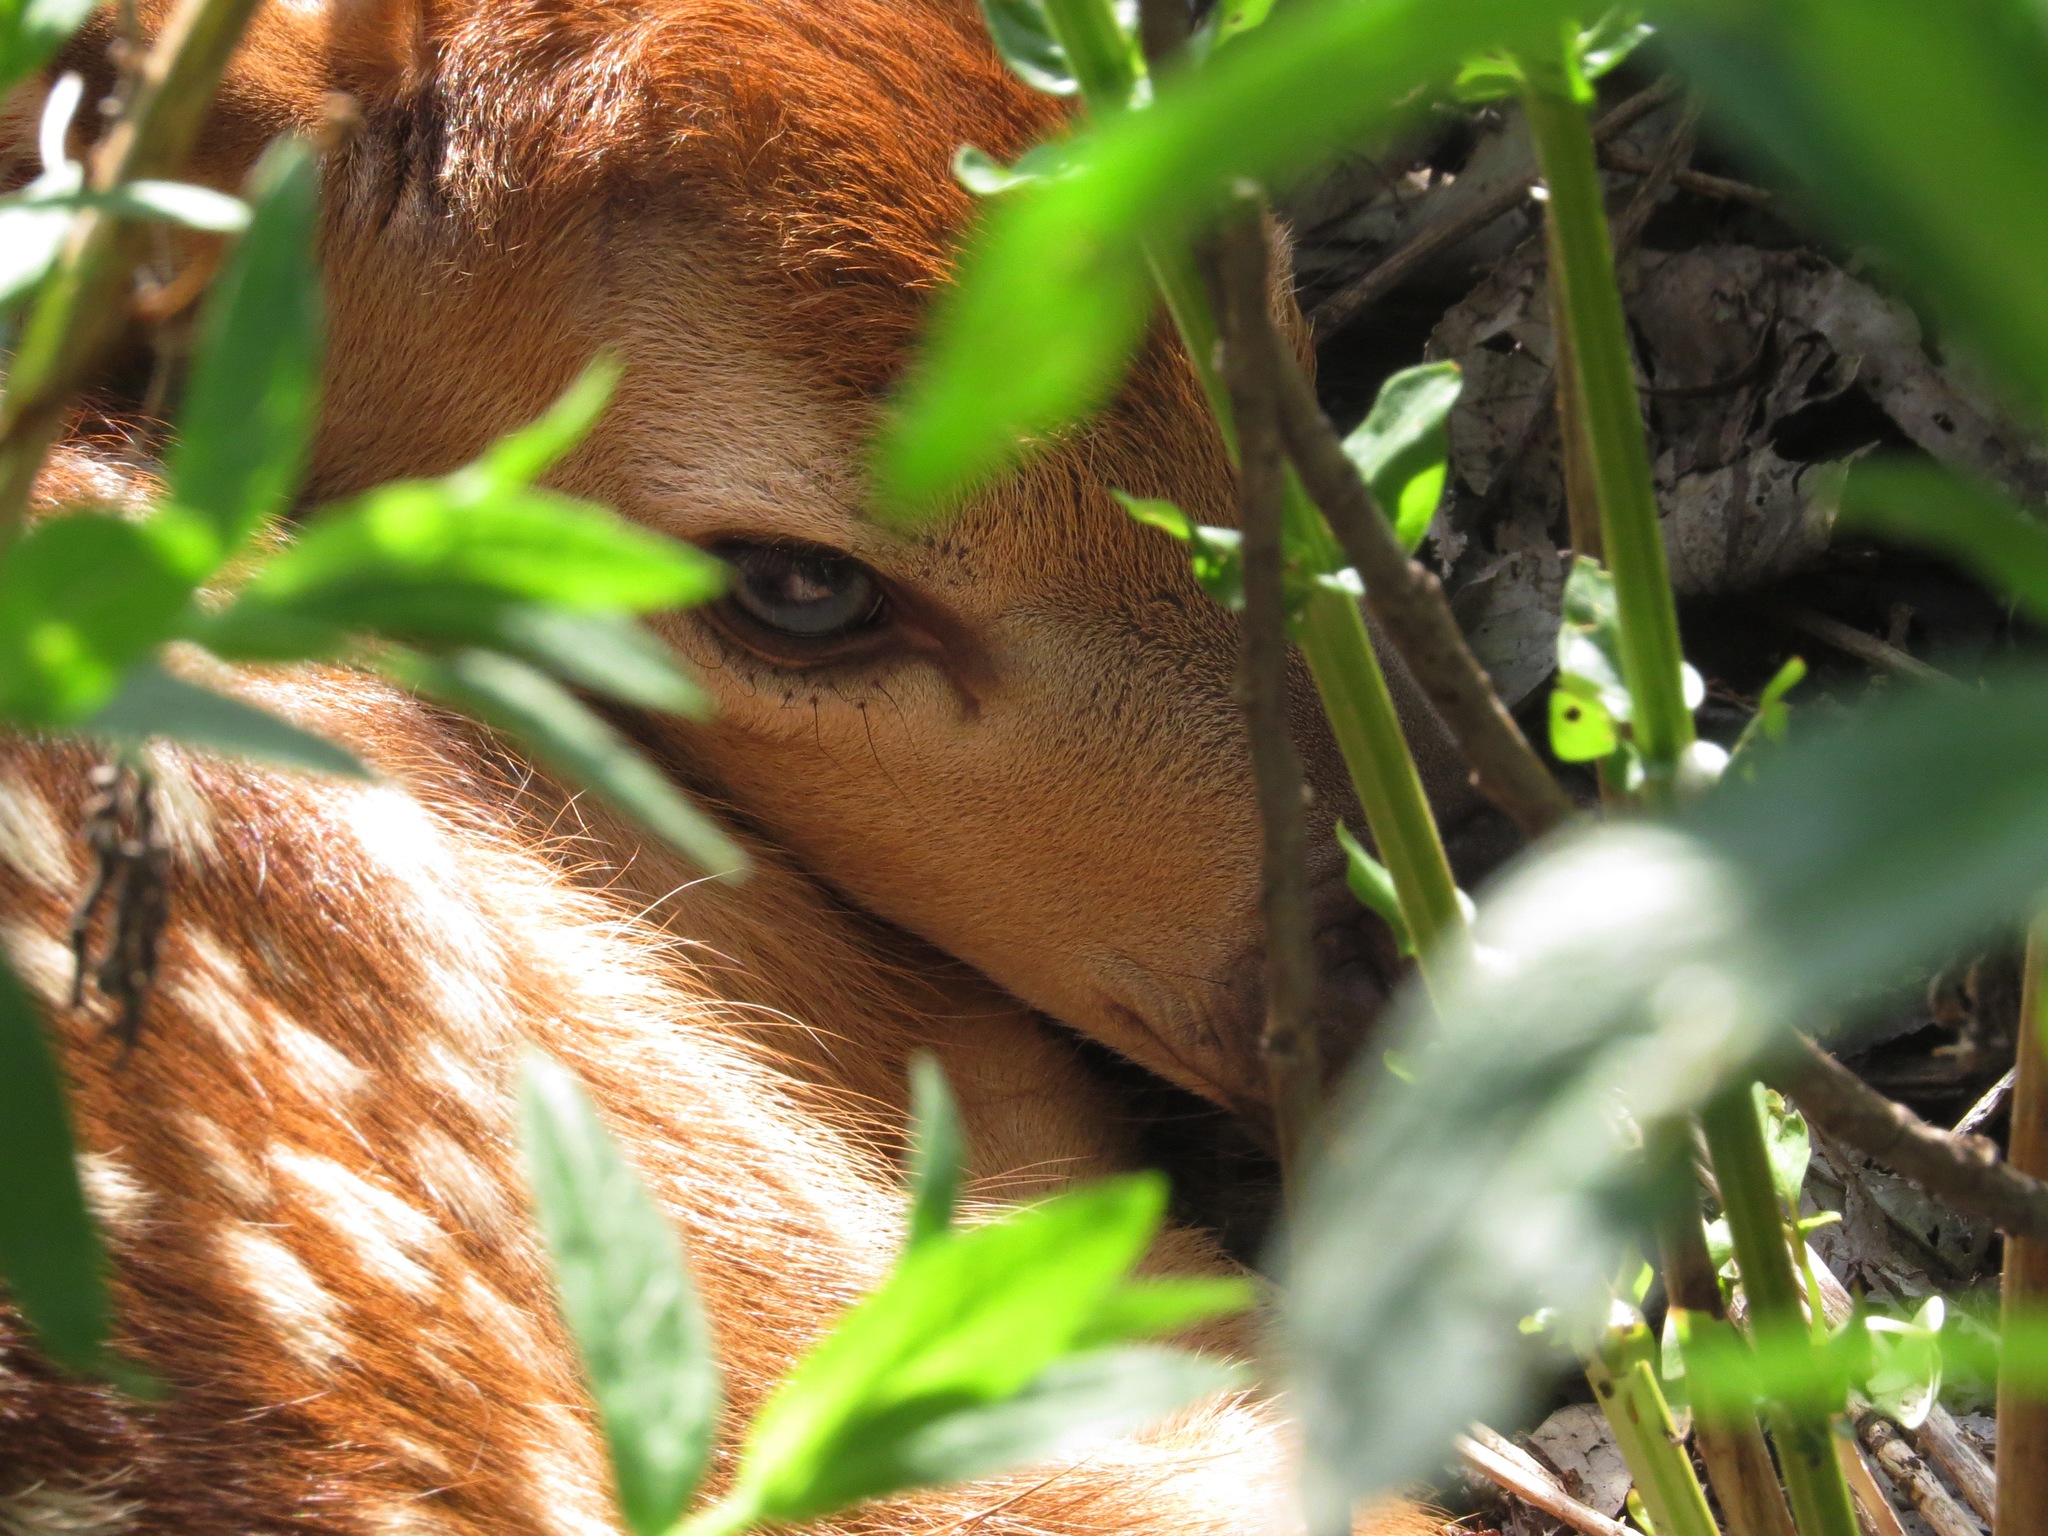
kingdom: Animalia
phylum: Chordata
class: Mammalia
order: Artiodactyla
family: Cervidae
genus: Odocoileus
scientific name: Odocoileus virginianus
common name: White-tailed deer
